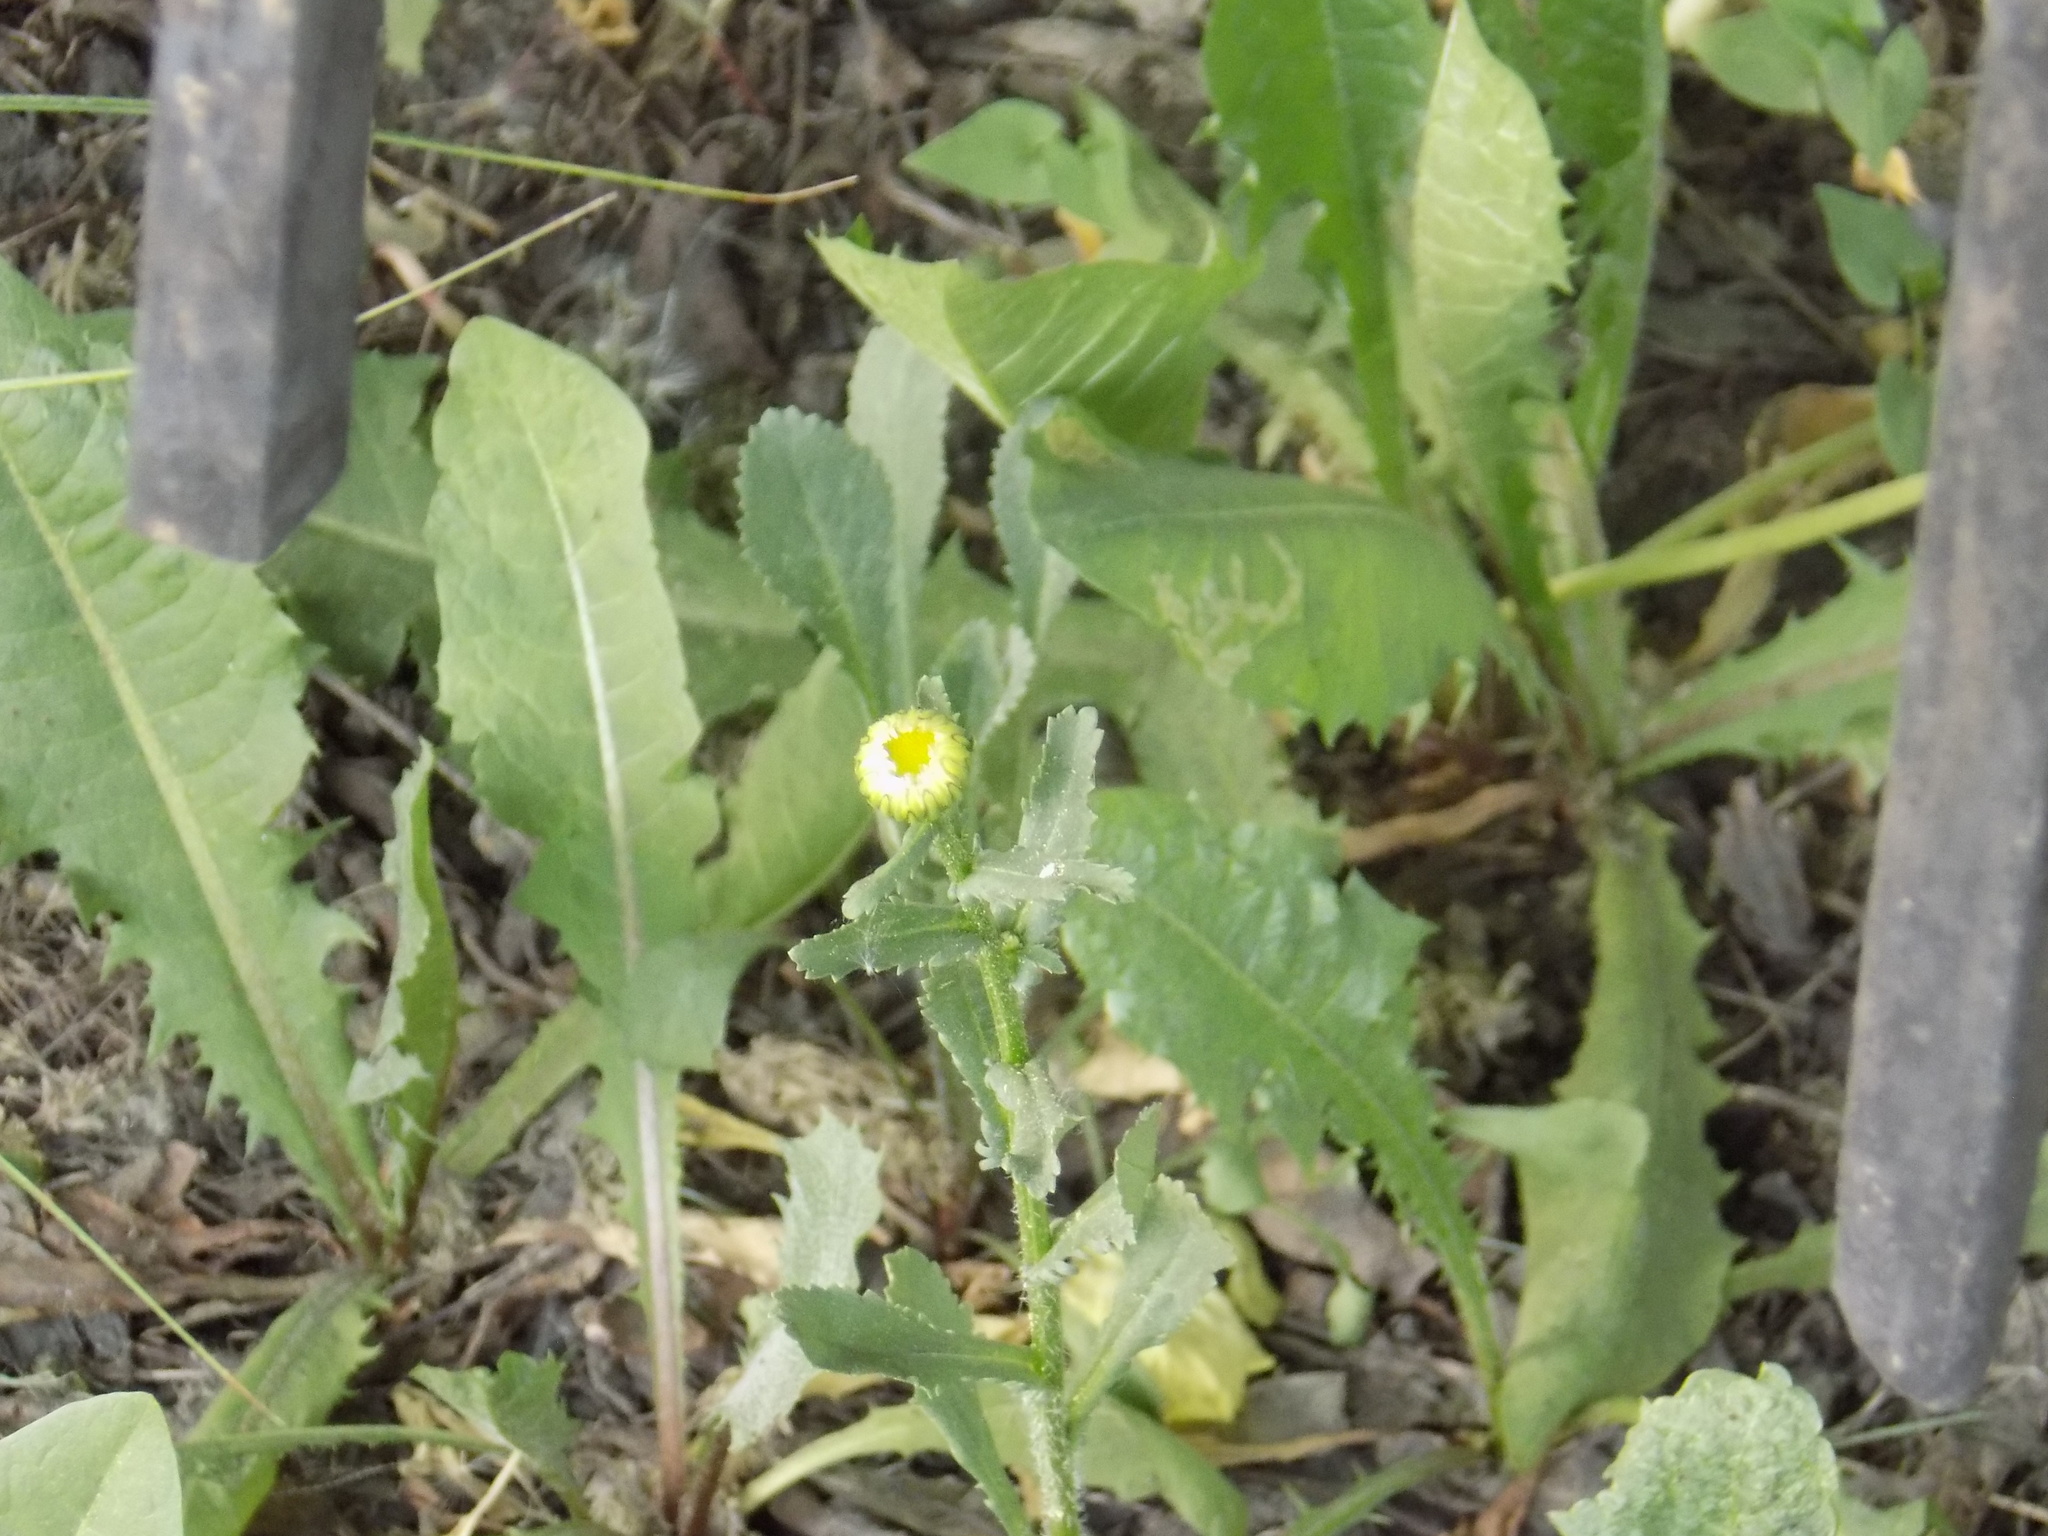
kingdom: Plantae
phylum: Tracheophyta
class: Magnoliopsida
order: Asterales
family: Asteraceae
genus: Leucanthemum
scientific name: Leucanthemum vulgare
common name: Oxeye daisy
